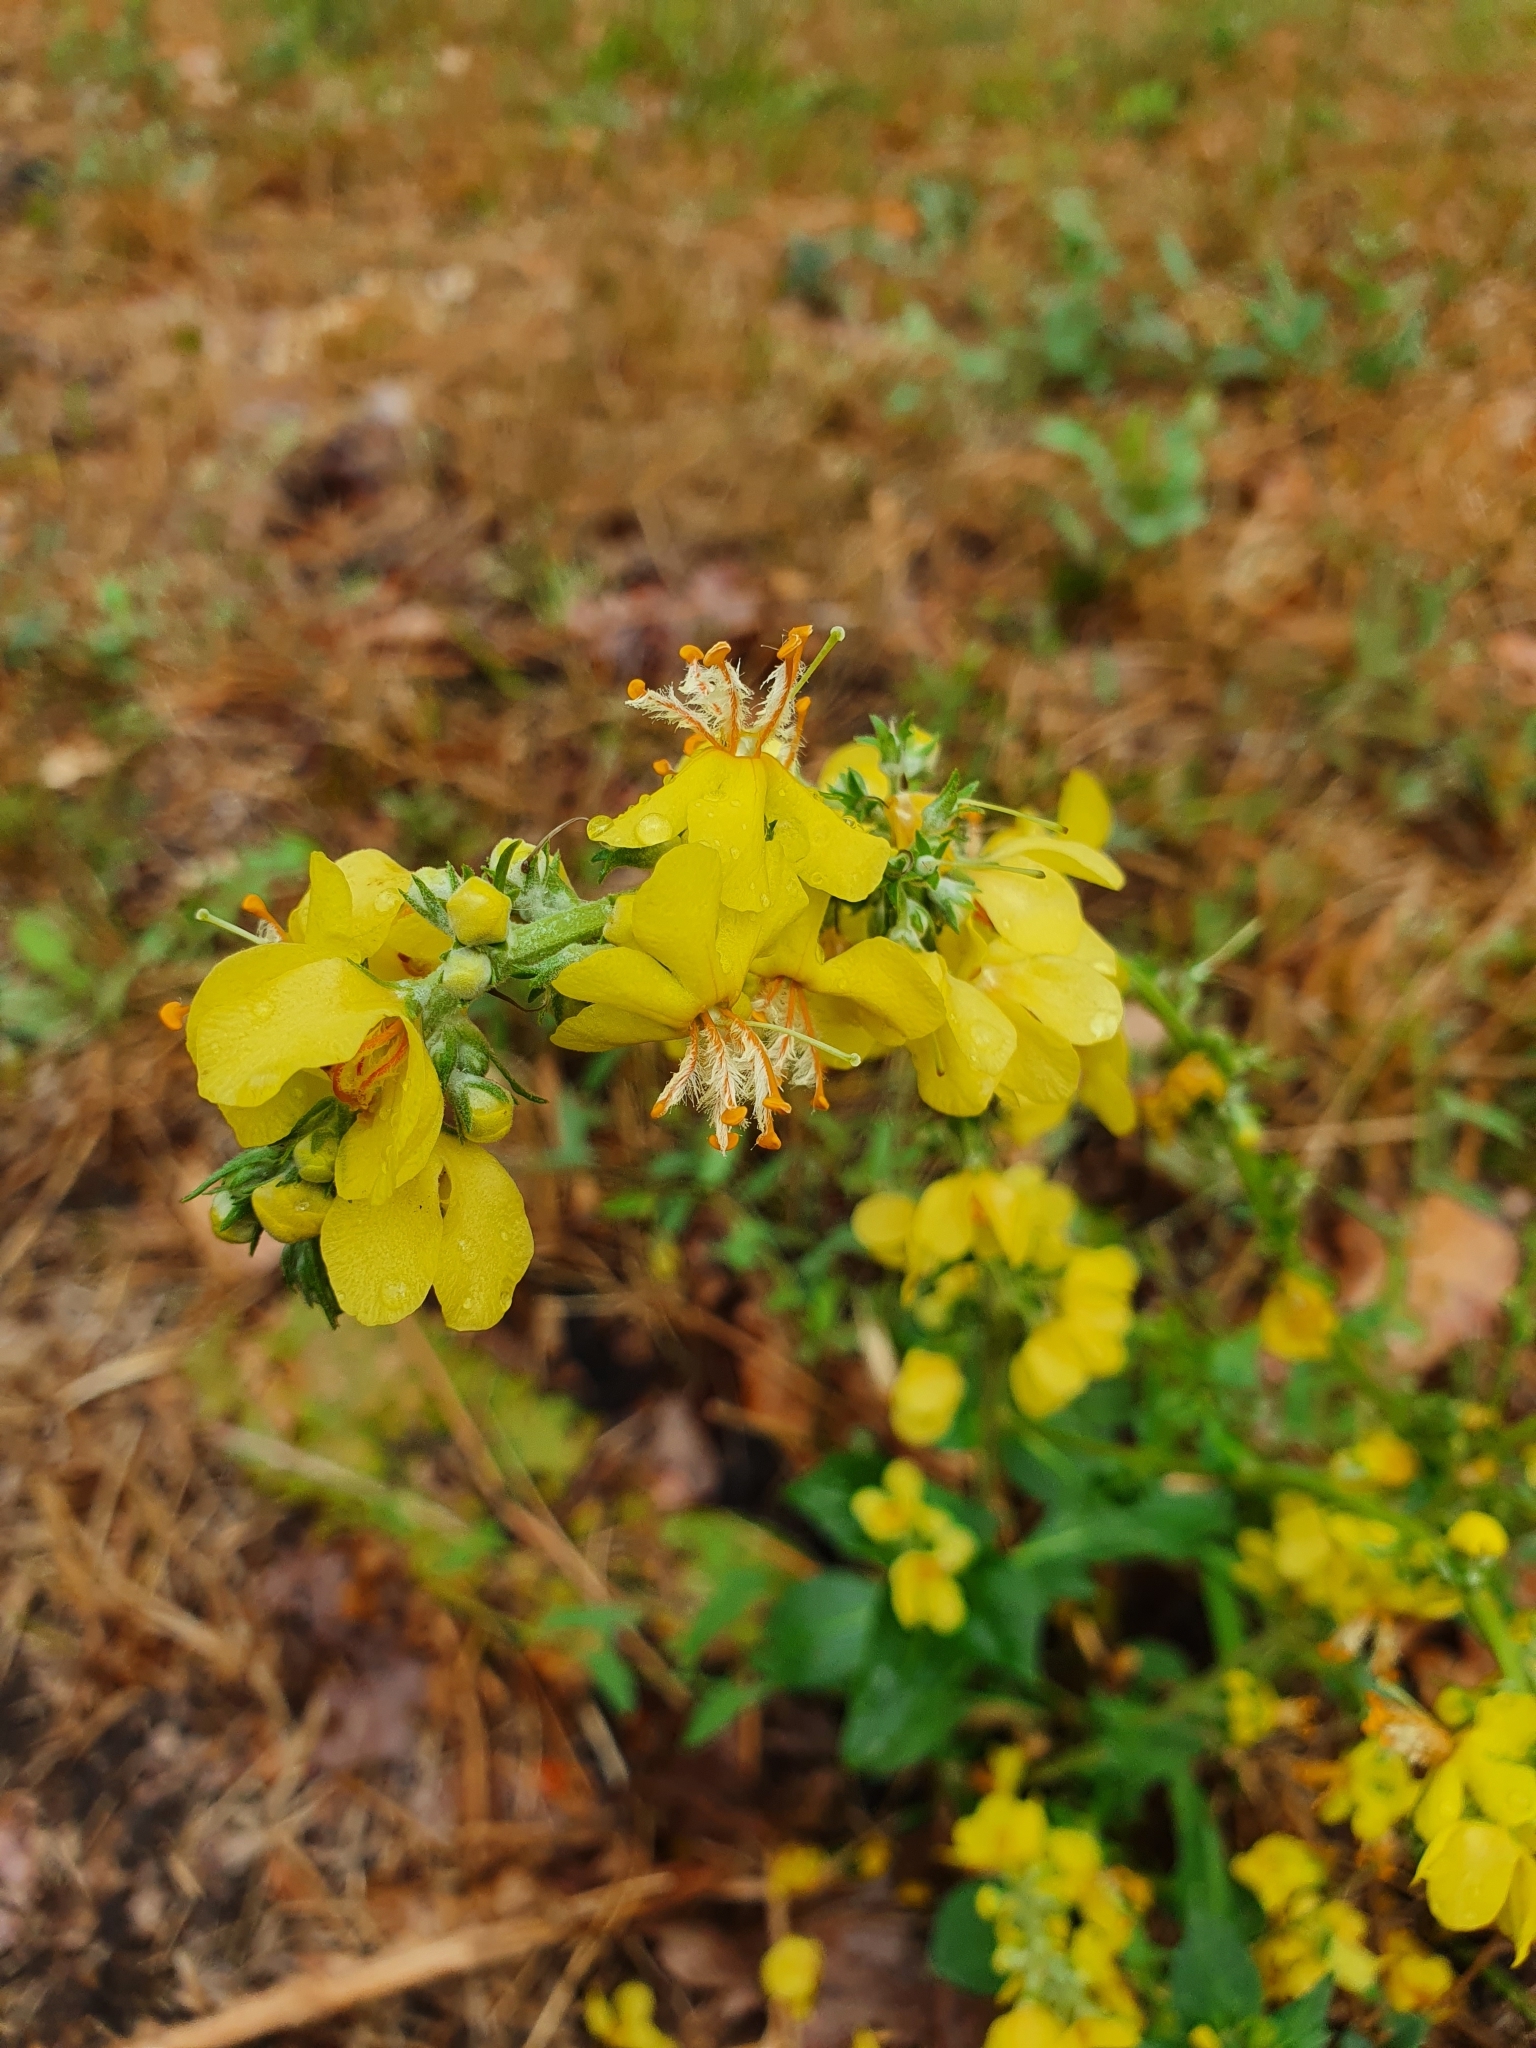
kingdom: Plantae
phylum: Tracheophyta
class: Magnoliopsida
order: Lamiales
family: Scrophulariaceae
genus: Verbascum
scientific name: Verbascum lychnitis
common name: White mullein
